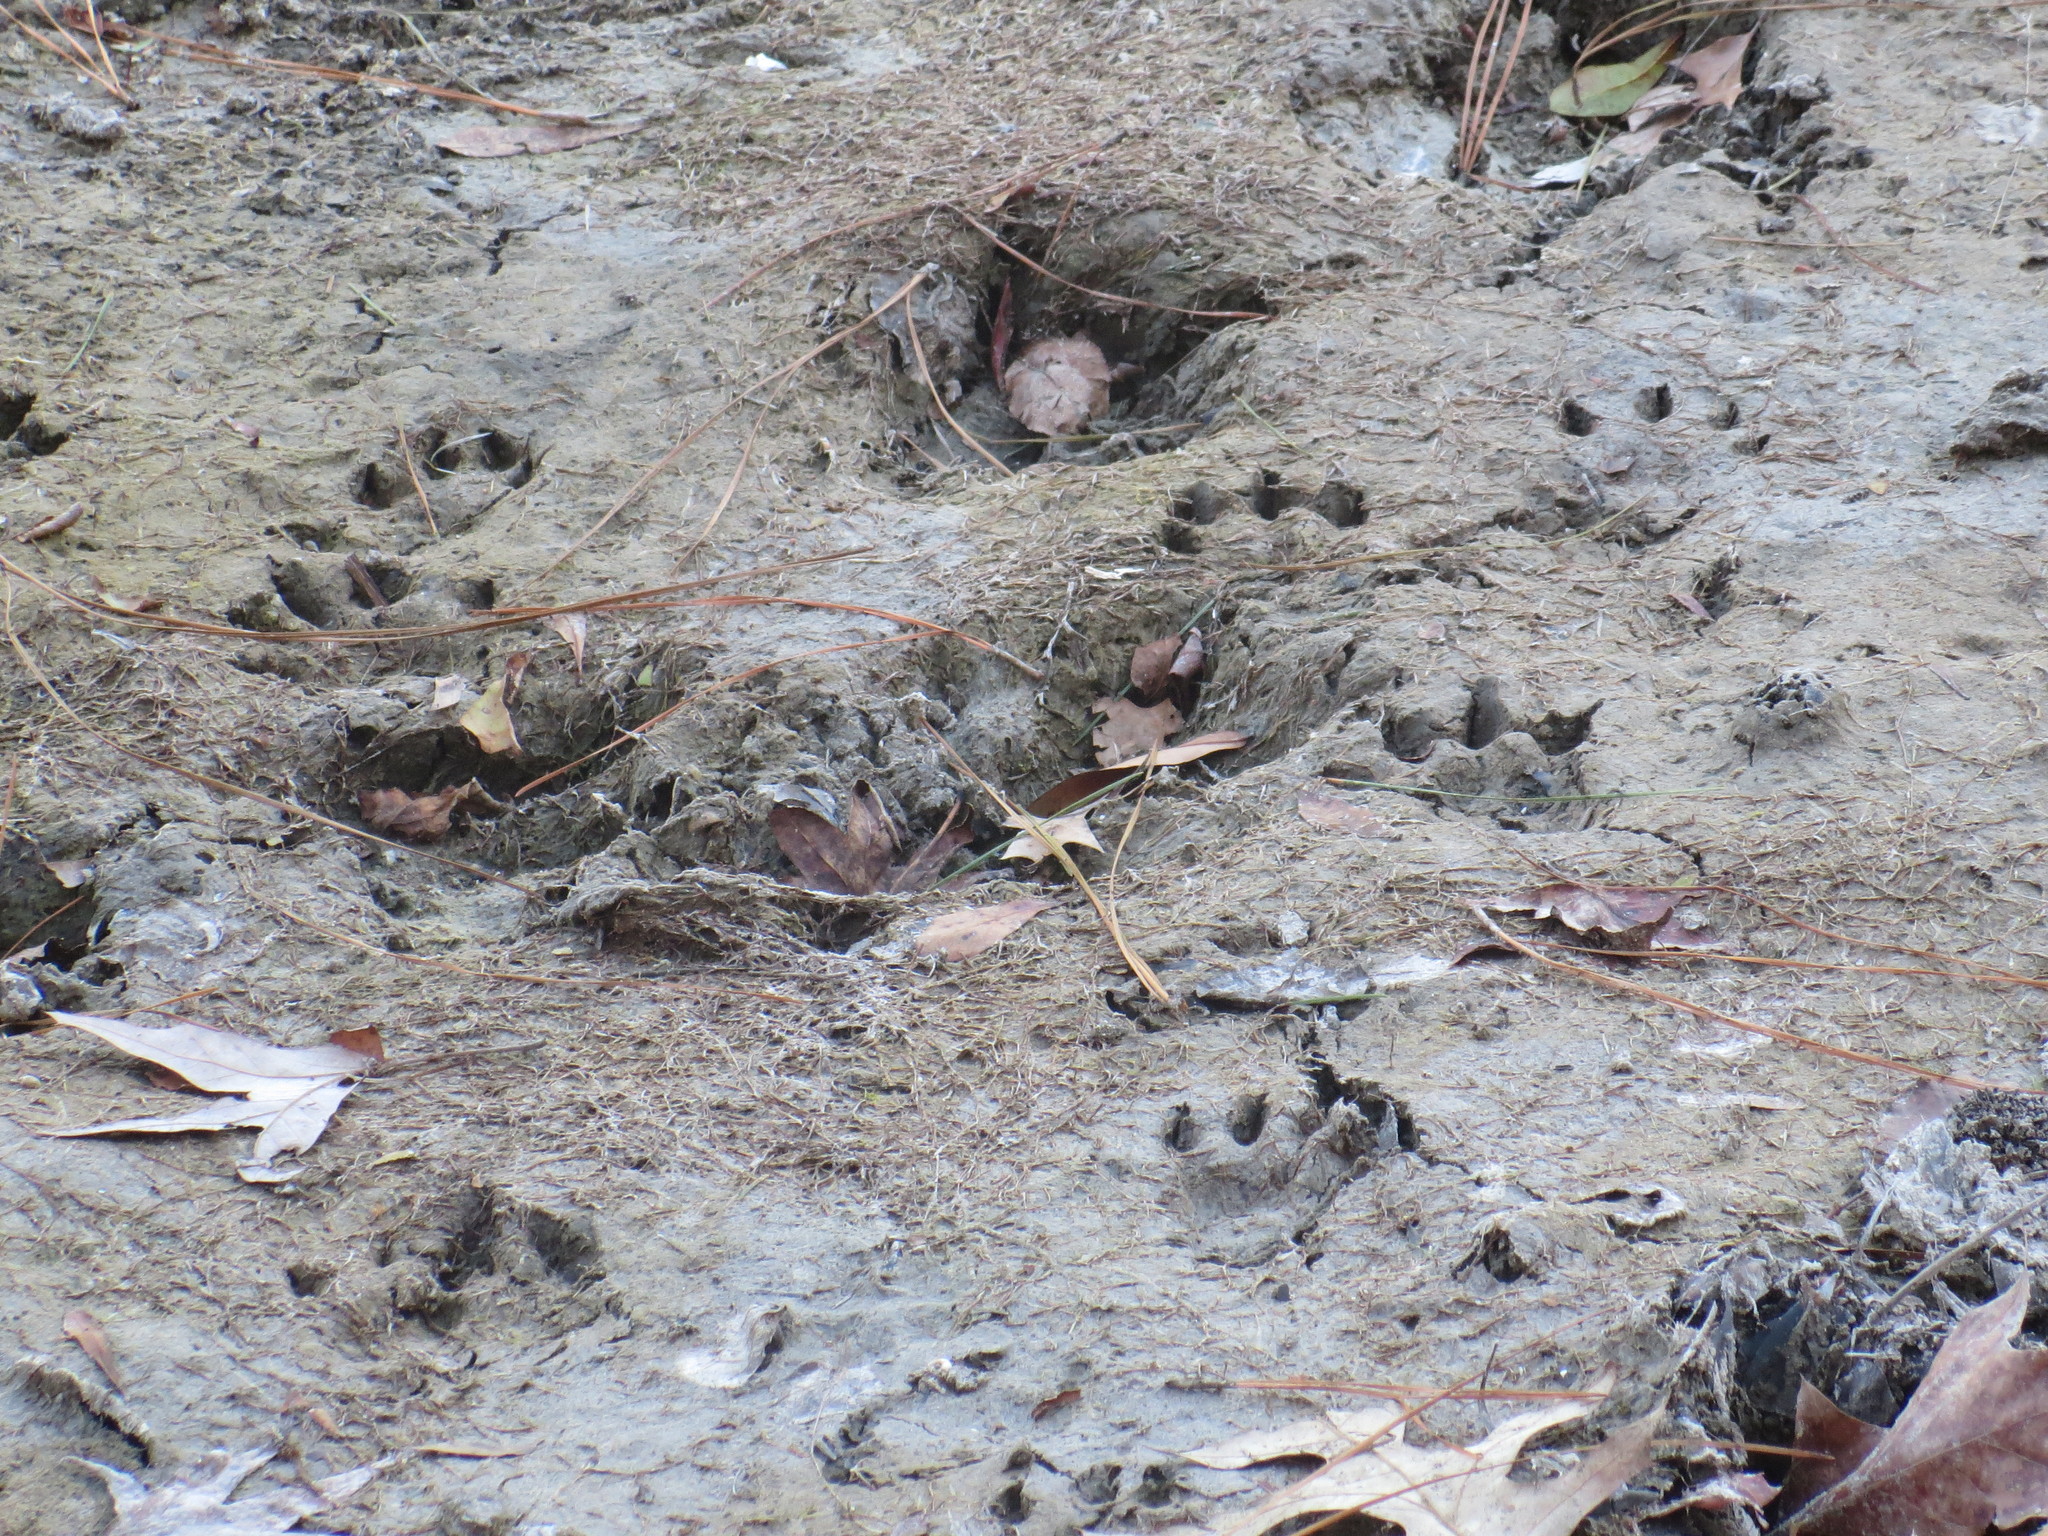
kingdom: Animalia
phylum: Chordata
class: Mammalia
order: Carnivora
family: Mustelidae
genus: Lontra
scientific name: Lontra canadensis
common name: North american river otter
